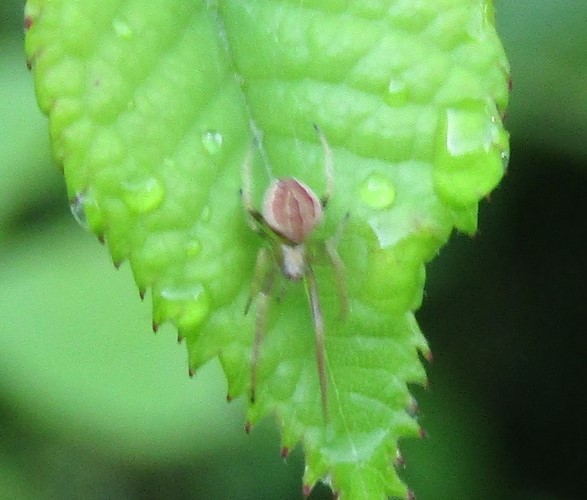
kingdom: Animalia
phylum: Arthropoda
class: Arachnida
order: Araneae
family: Araneidae
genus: Acacesia
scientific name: Acacesia hamata
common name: Orb weavers
